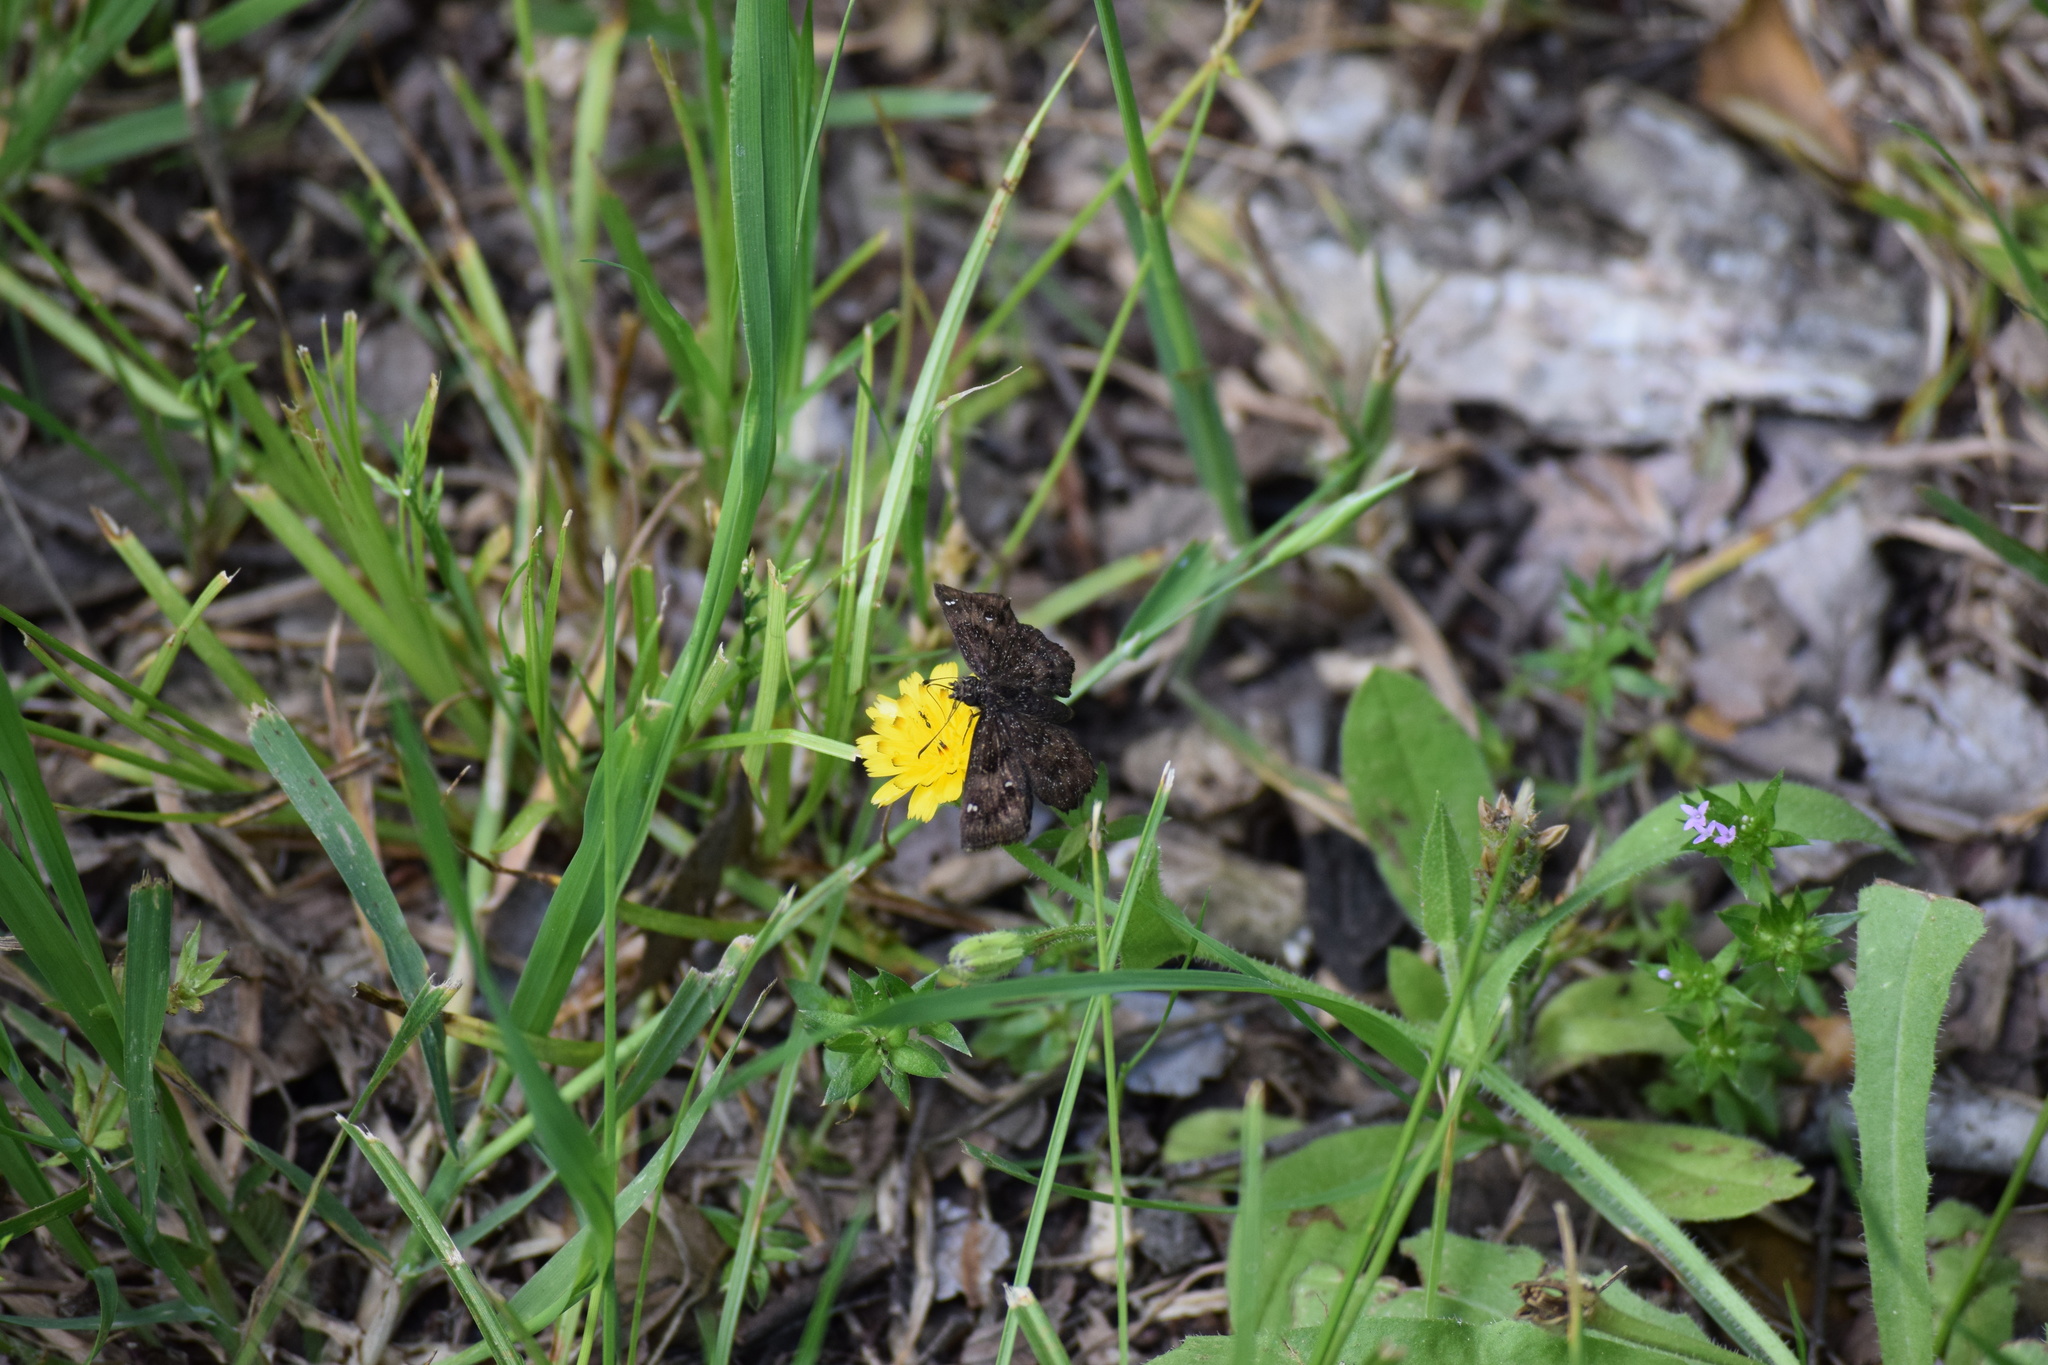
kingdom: Animalia
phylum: Arthropoda
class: Insecta
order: Lepidoptera
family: Hesperiidae
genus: Staphylus
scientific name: Staphylus mazans
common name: Mazans scallopwing
